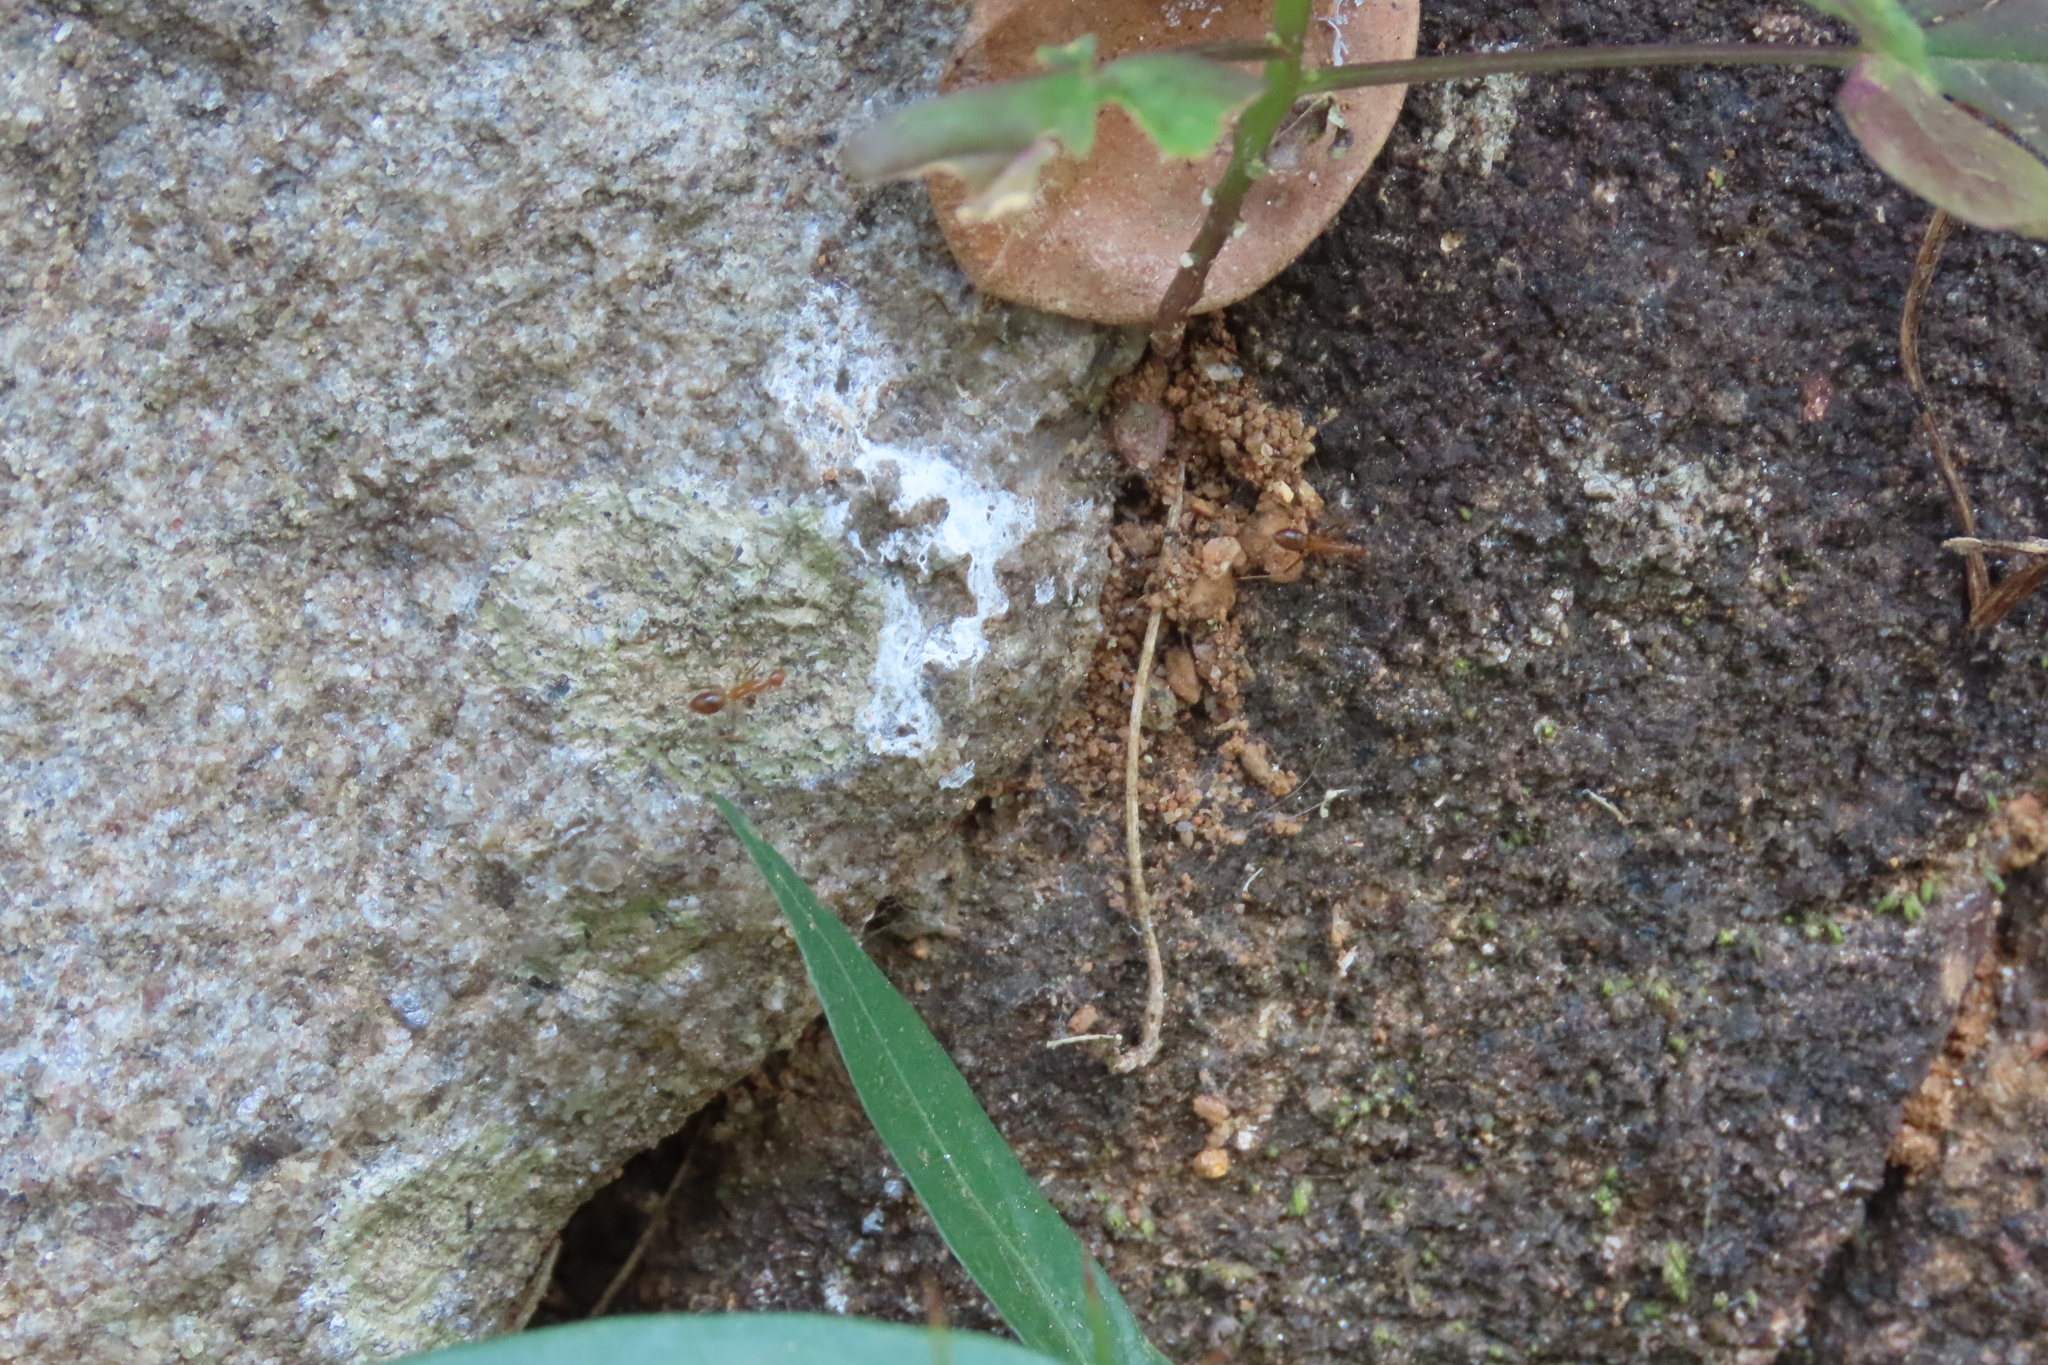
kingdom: Animalia
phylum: Arthropoda
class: Insecta
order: Hymenoptera
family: Formicidae
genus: Anoplolepis
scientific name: Anoplolepis gracilipes
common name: Ant
